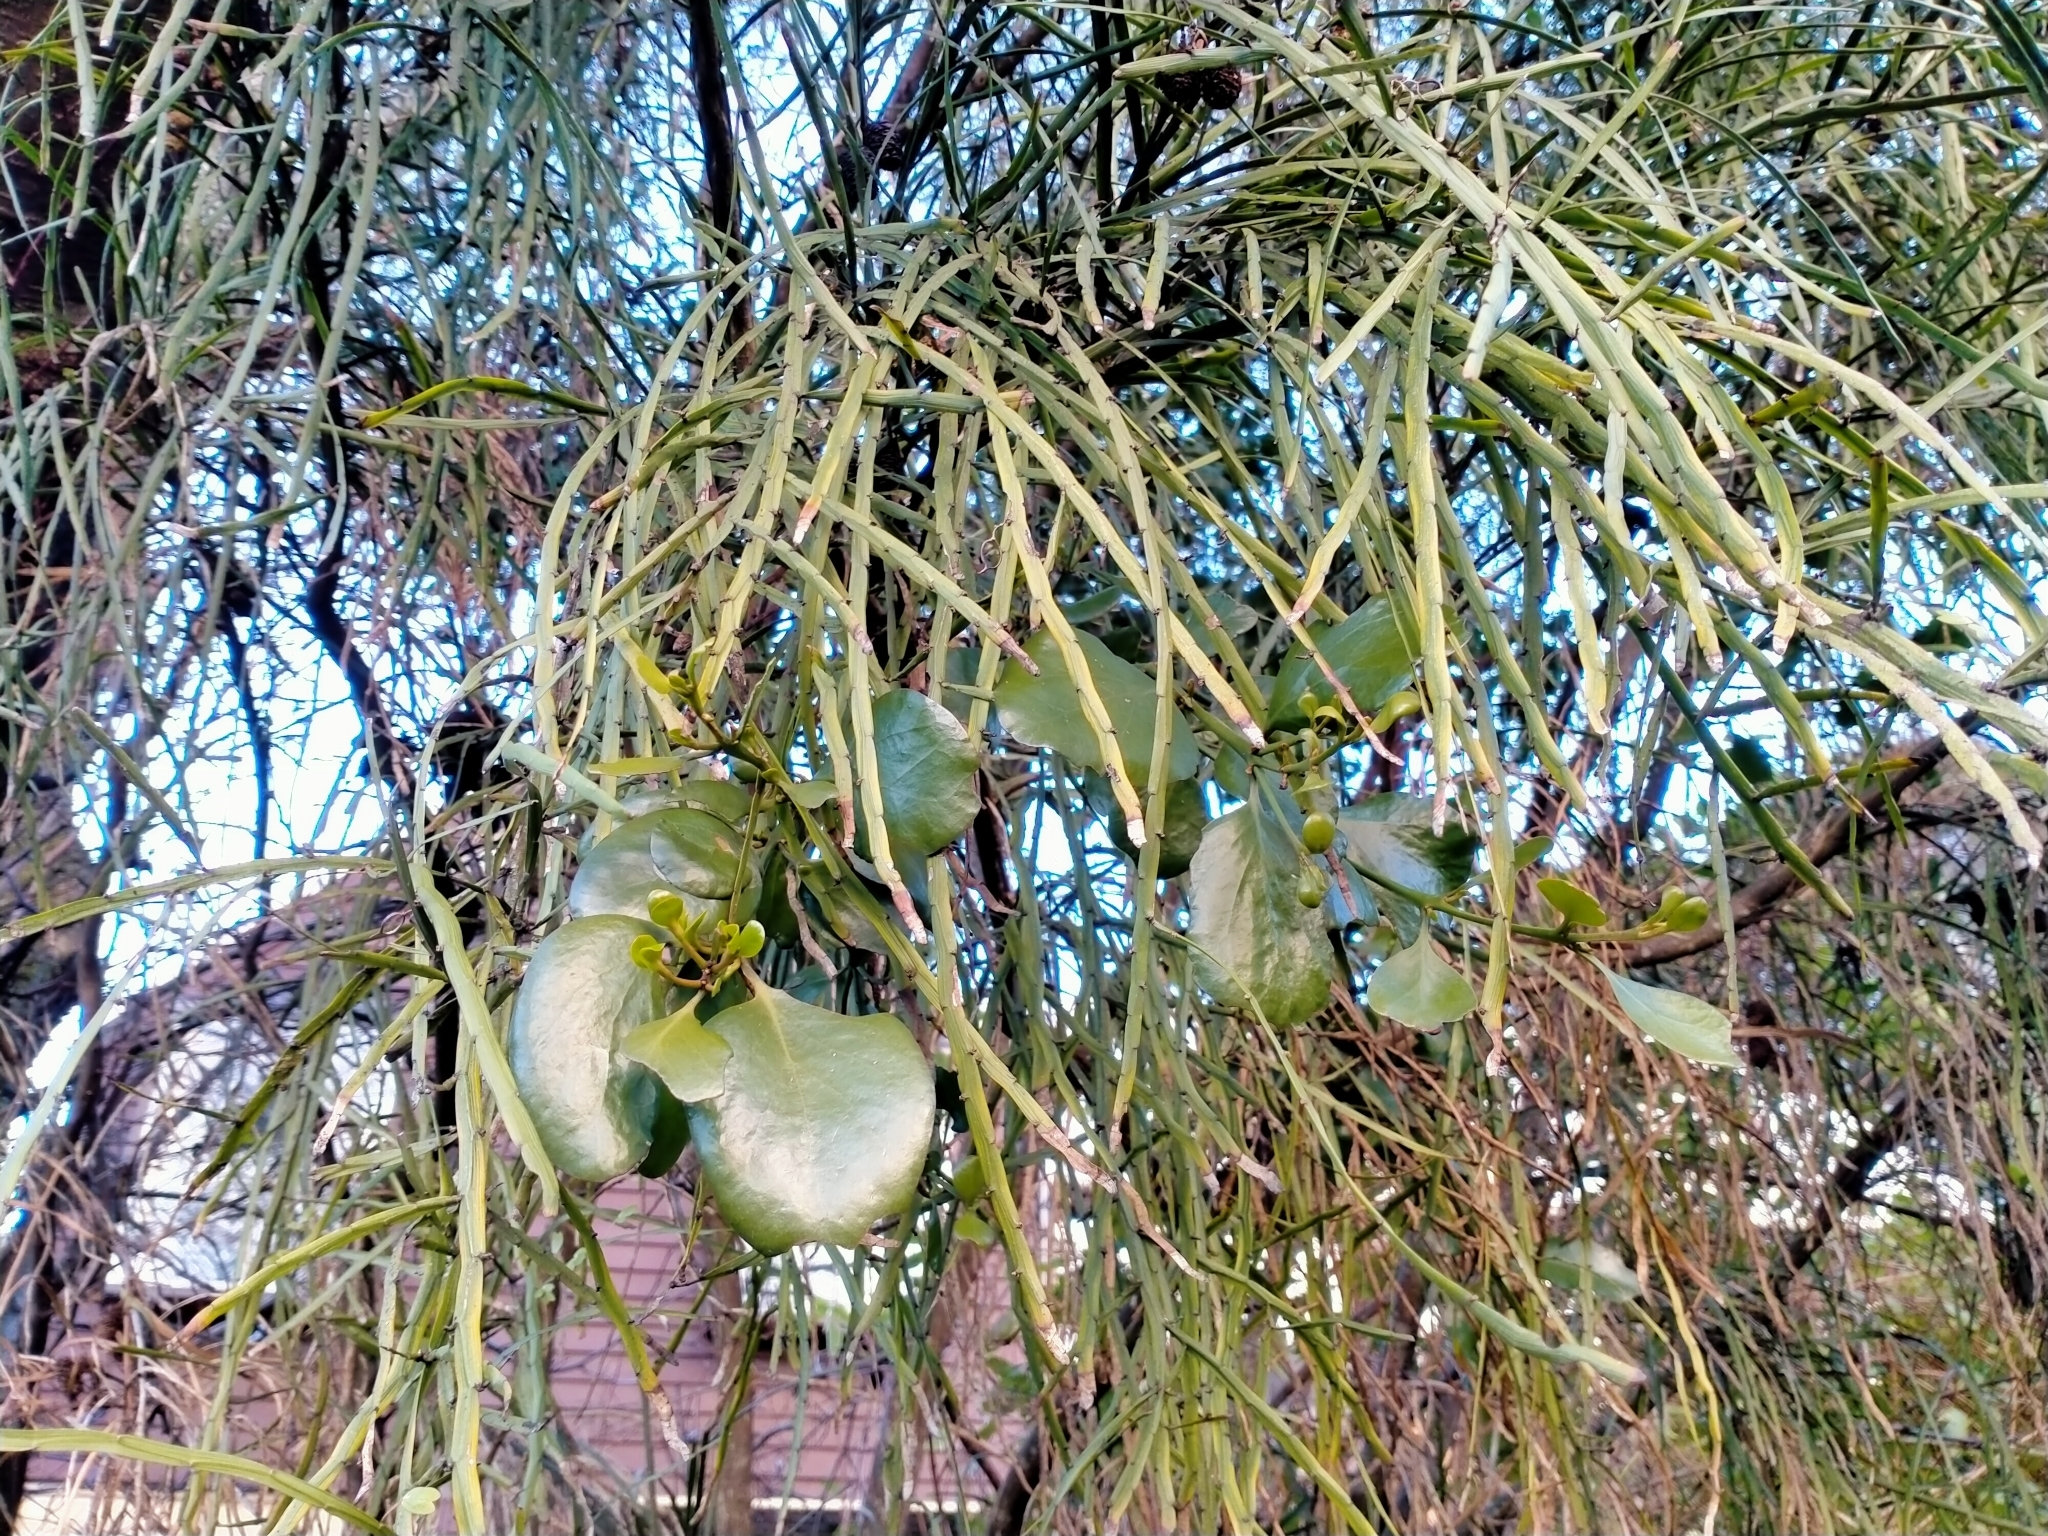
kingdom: Plantae
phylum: Tracheophyta
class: Magnoliopsida
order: Santalales
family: Loranthaceae
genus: Ileostylus
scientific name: Ileostylus micranthus
